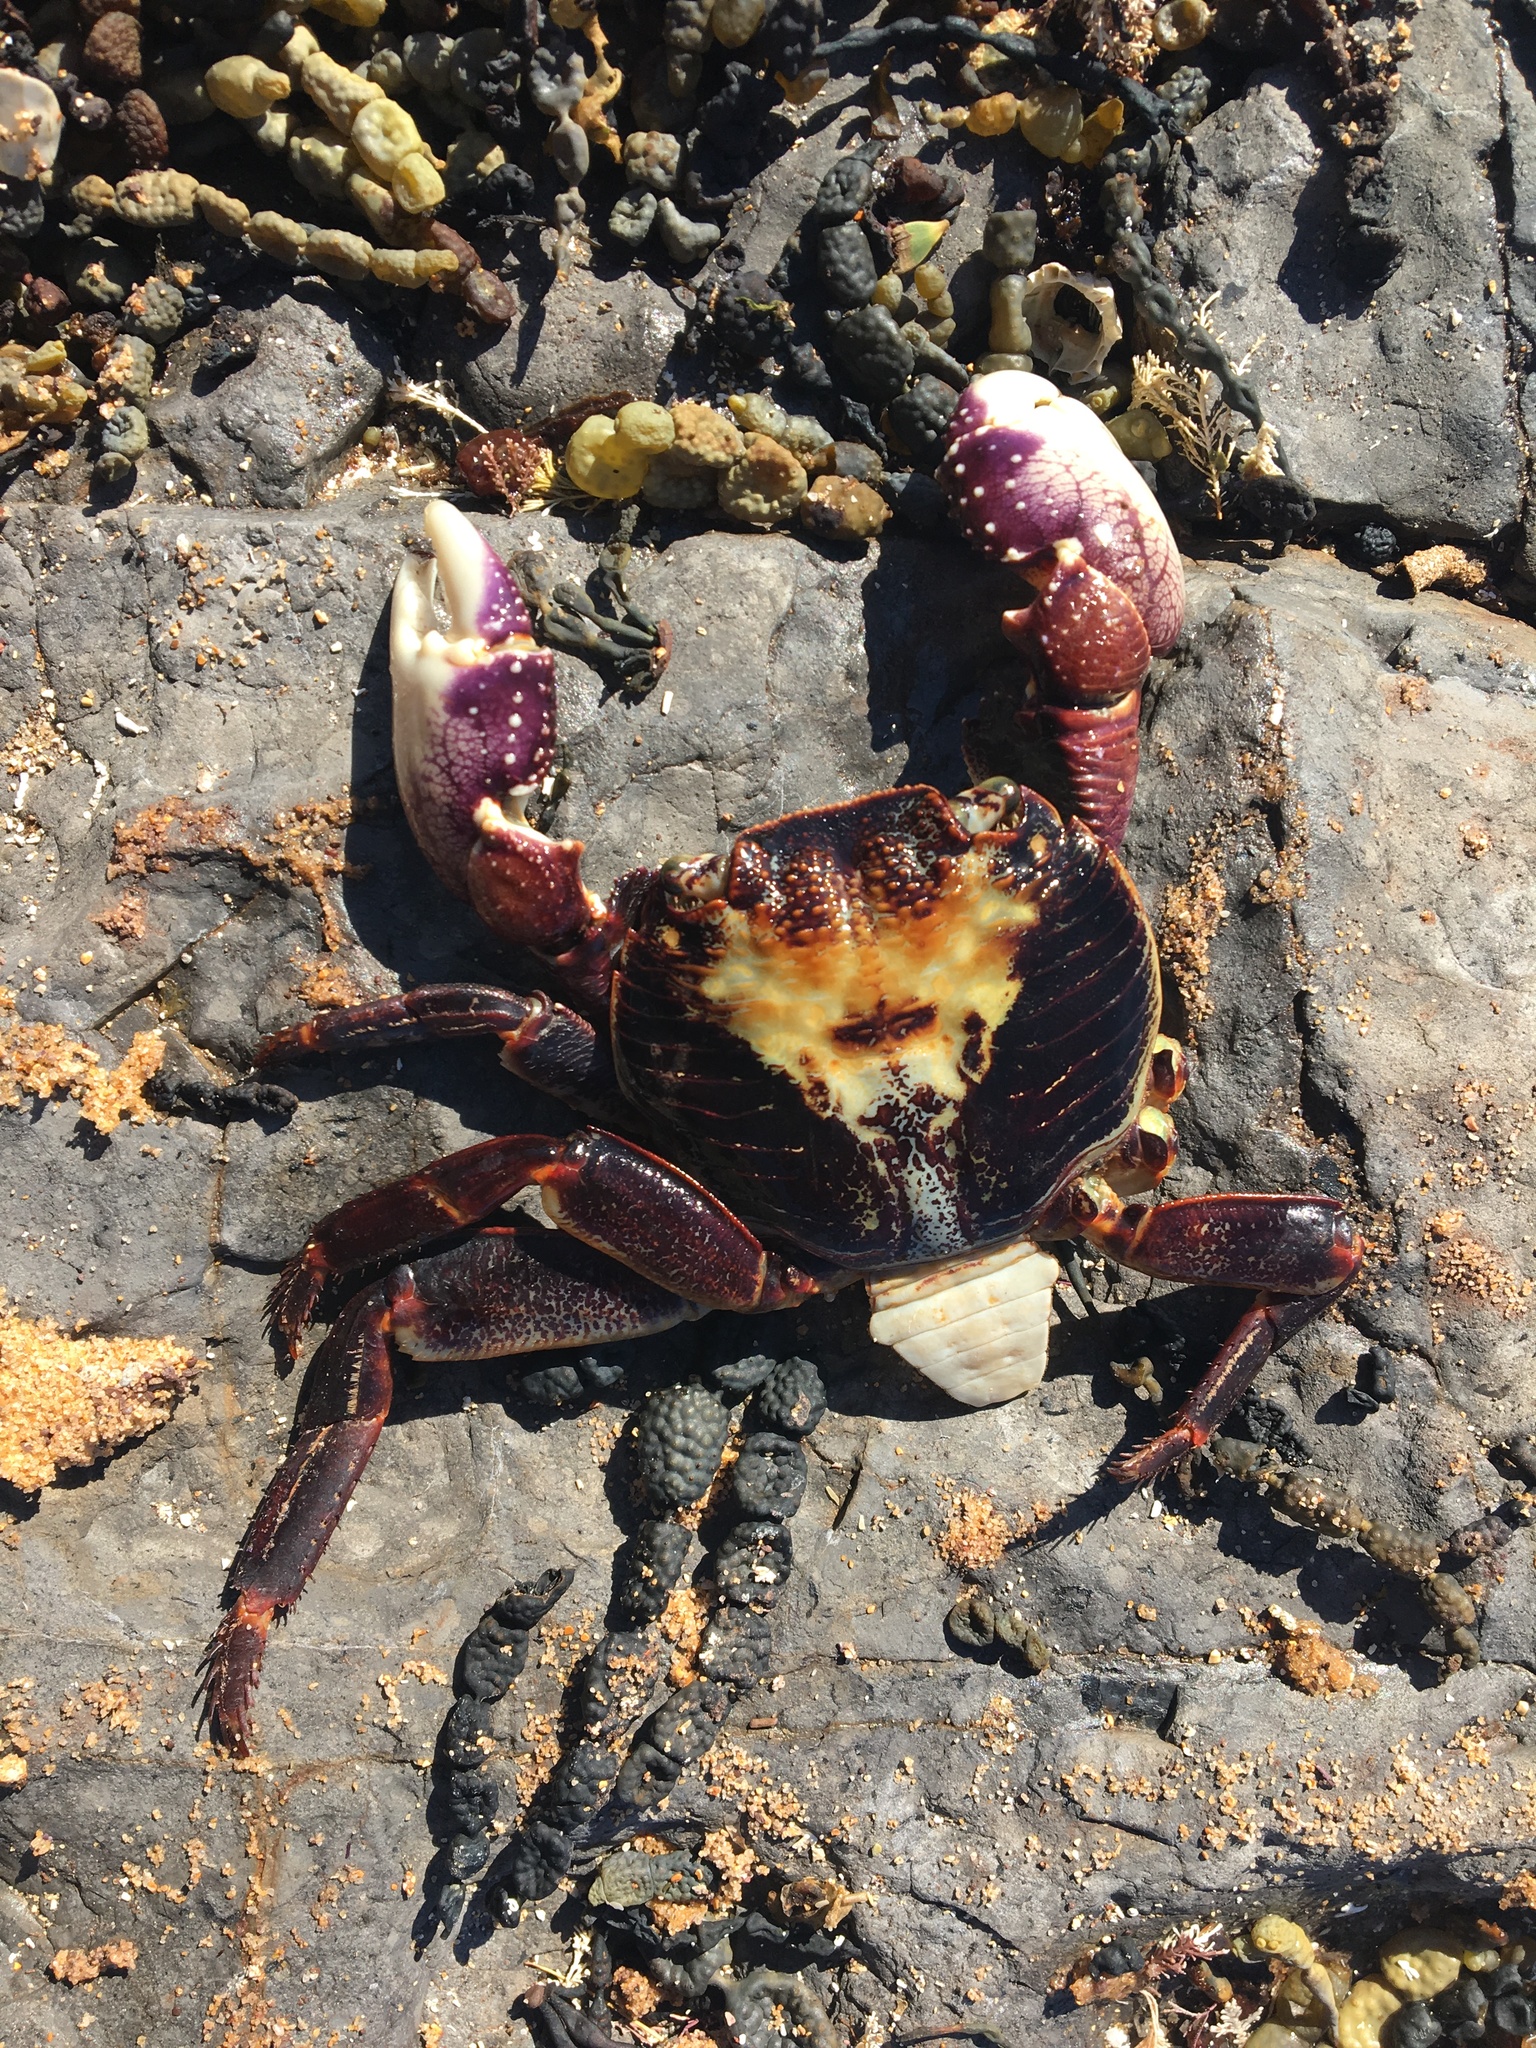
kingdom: Animalia
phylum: Arthropoda
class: Malacostraca
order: Decapoda
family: Grapsidae
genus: Leptograpsus
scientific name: Leptograpsus variegatus
